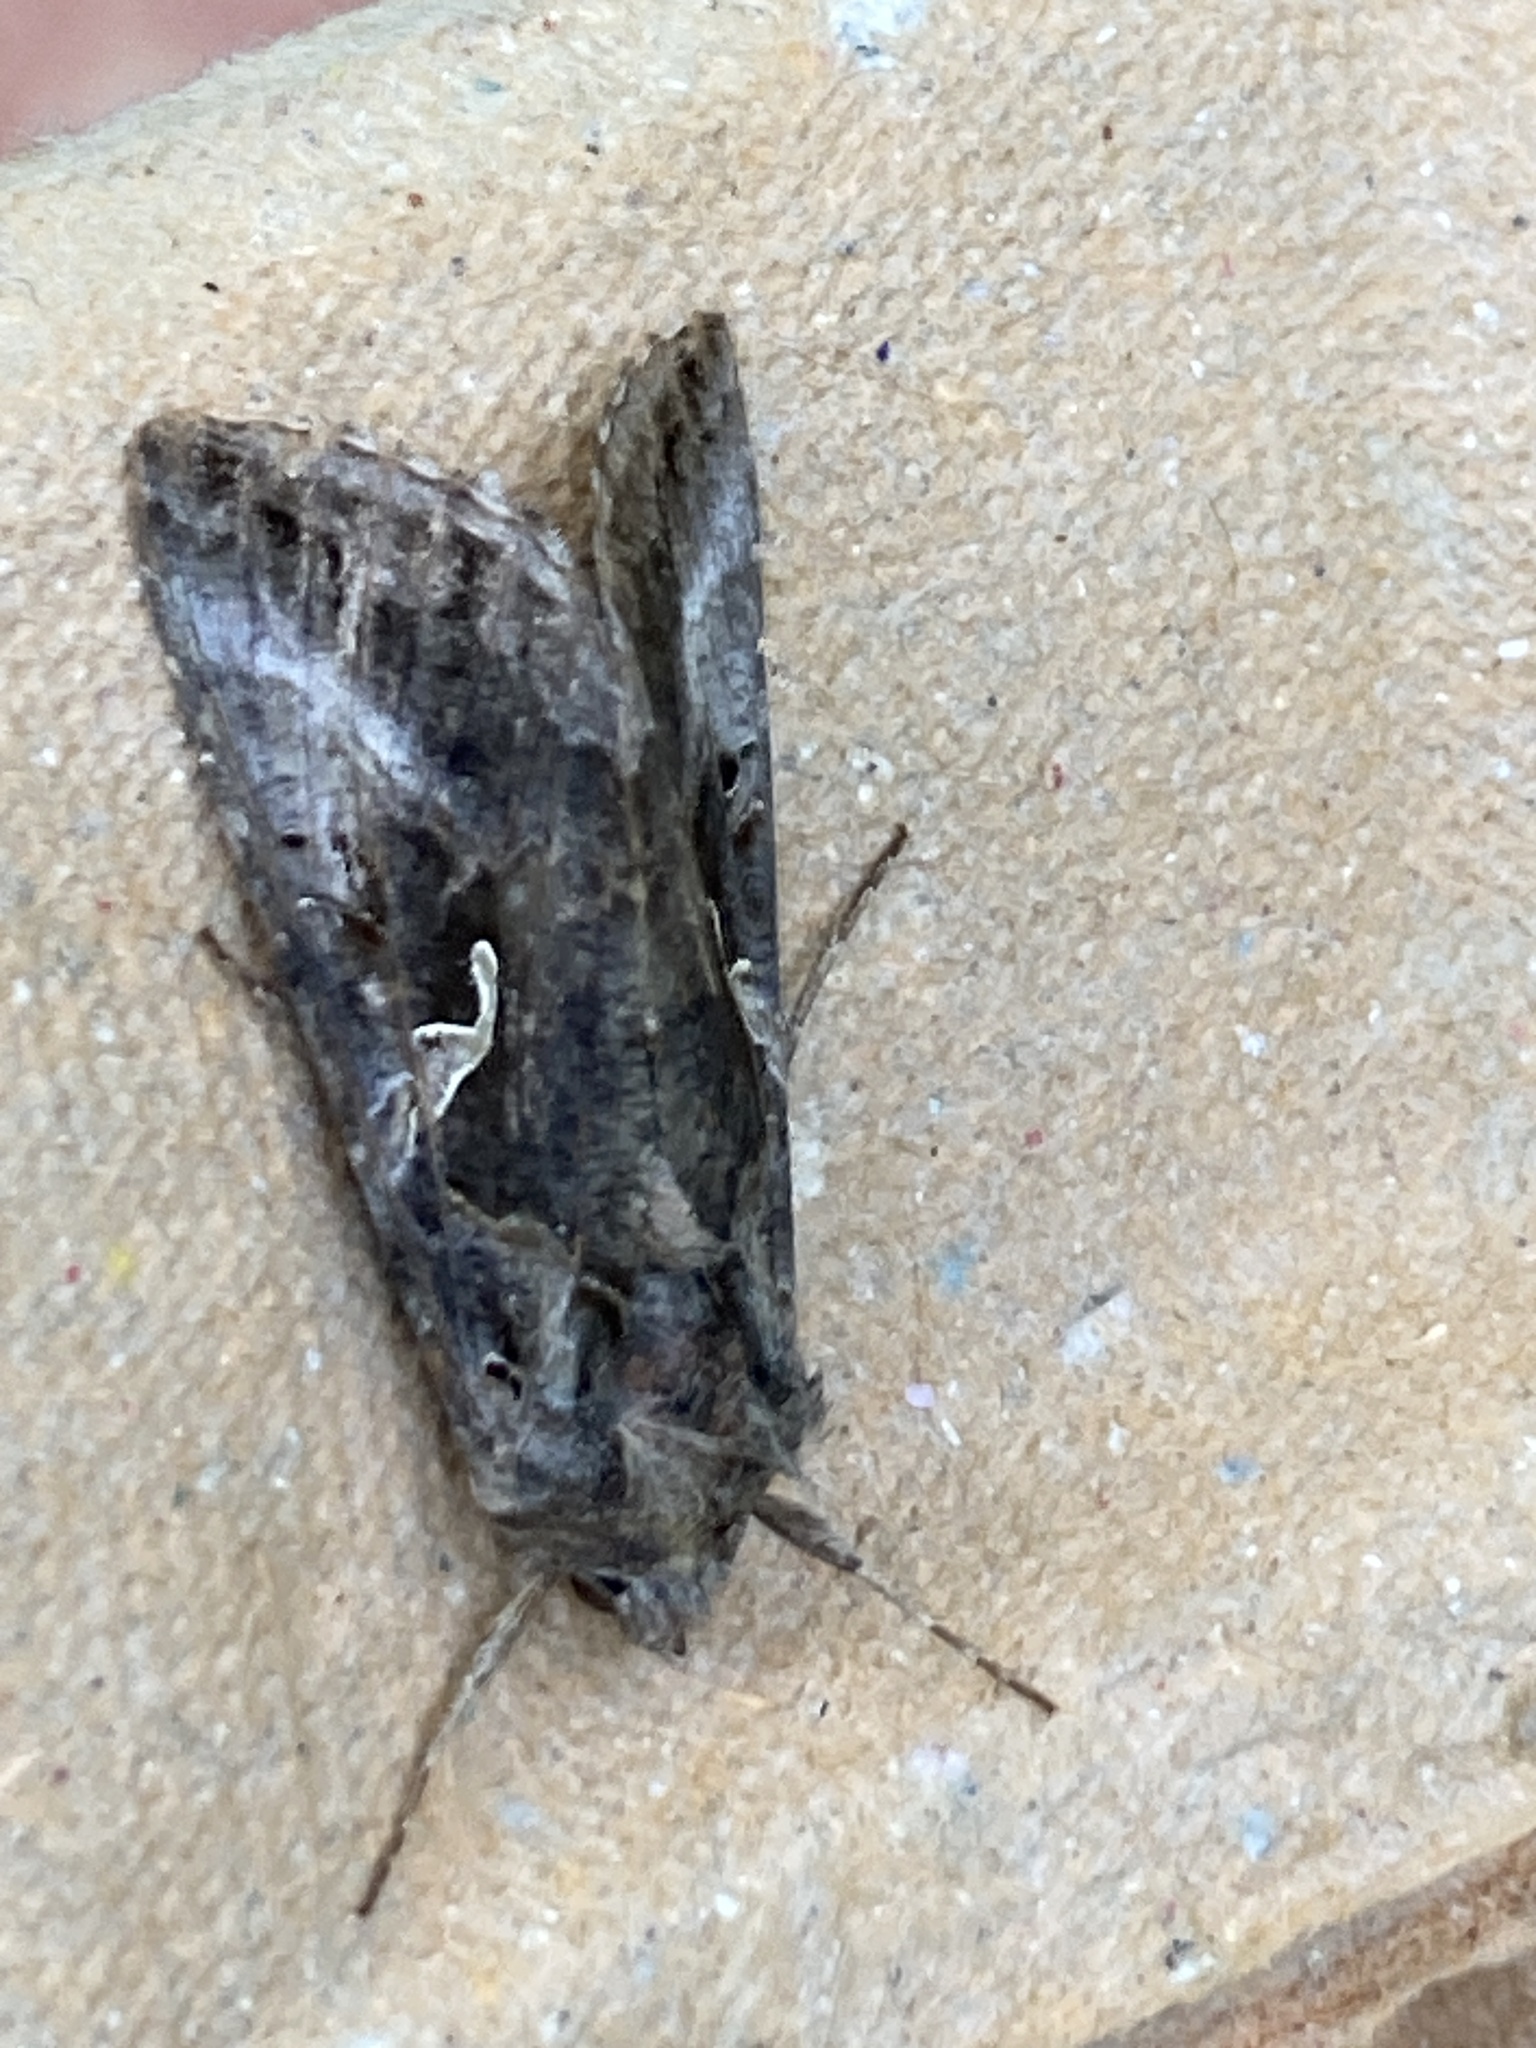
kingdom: Animalia
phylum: Arthropoda
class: Insecta
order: Lepidoptera
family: Noctuidae
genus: Autographa
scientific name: Autographa gamma
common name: Silver y
